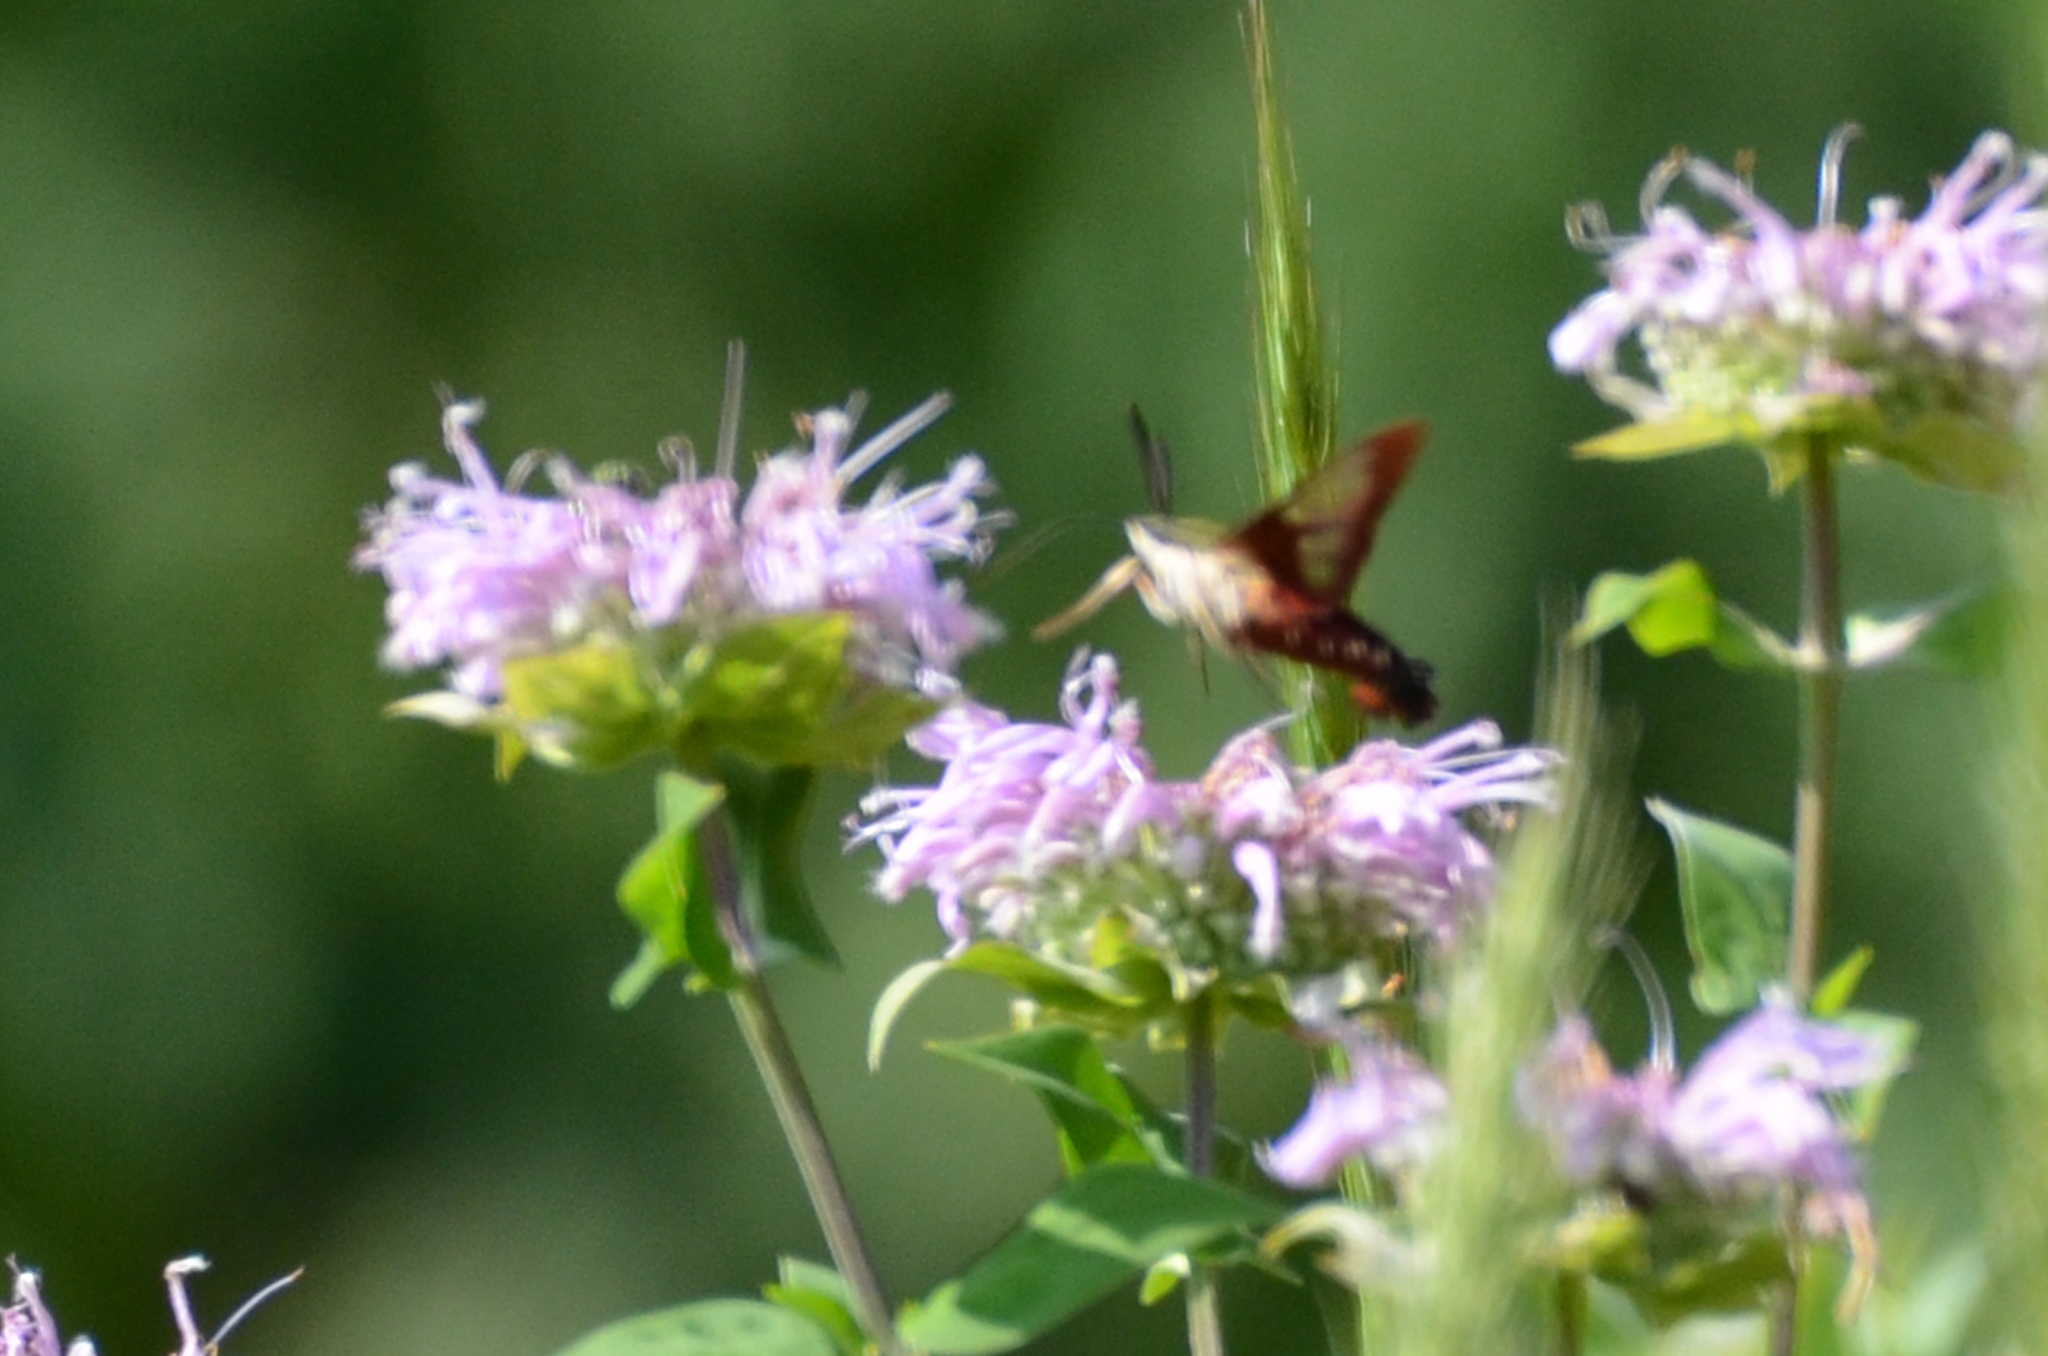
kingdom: Animalia
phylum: Arthropoda
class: Insecta
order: Lepidoptera
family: Sphingidae
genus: Hemaris
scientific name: Hemaris thysbe
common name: Common clear-wing
